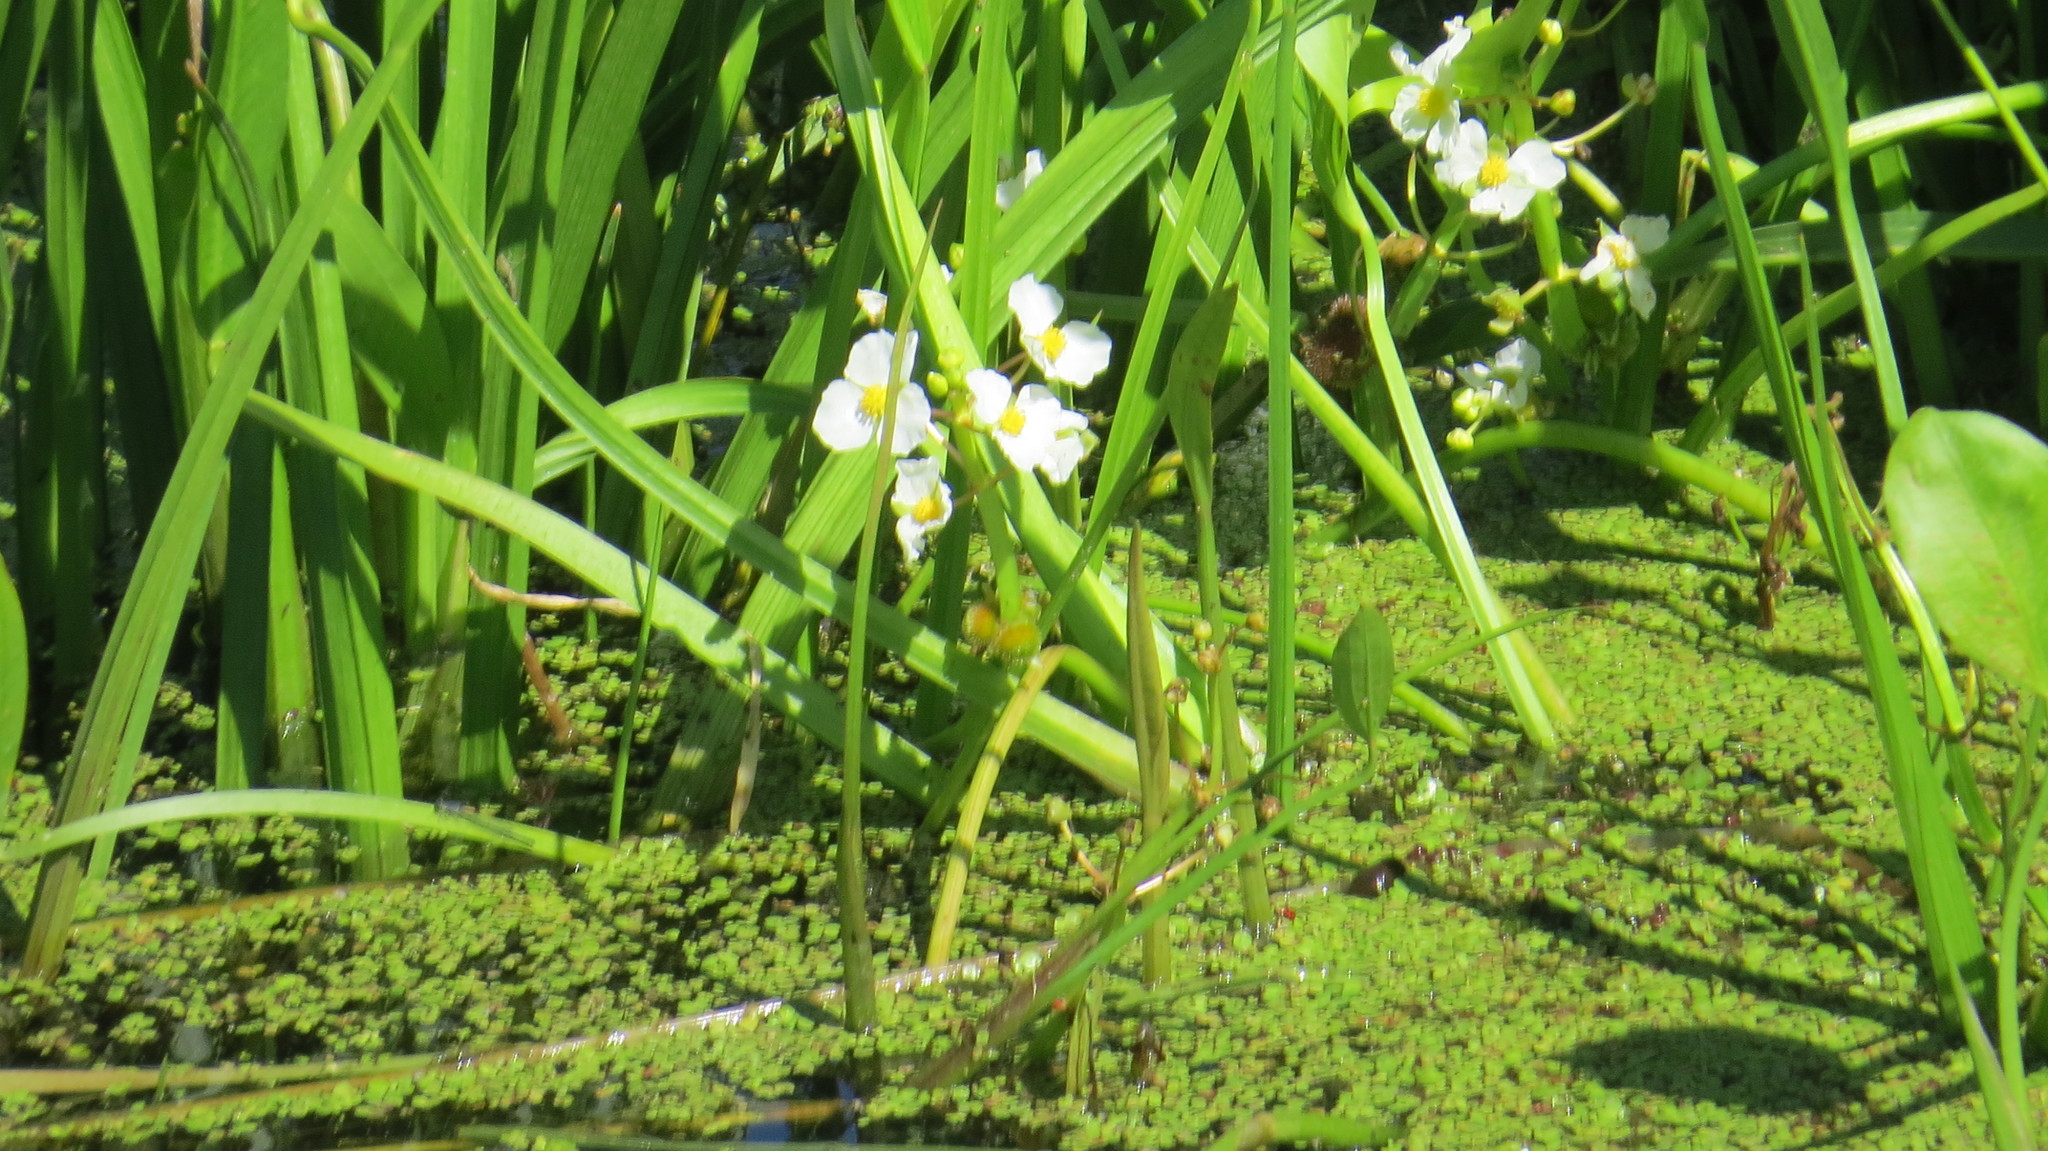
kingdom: Plantae
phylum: Tracheophyta
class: Liliopsida
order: Alismatales
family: Alismataceae
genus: Sagittaria
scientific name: Sagittaria rigida
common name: Canadian arrowhead
